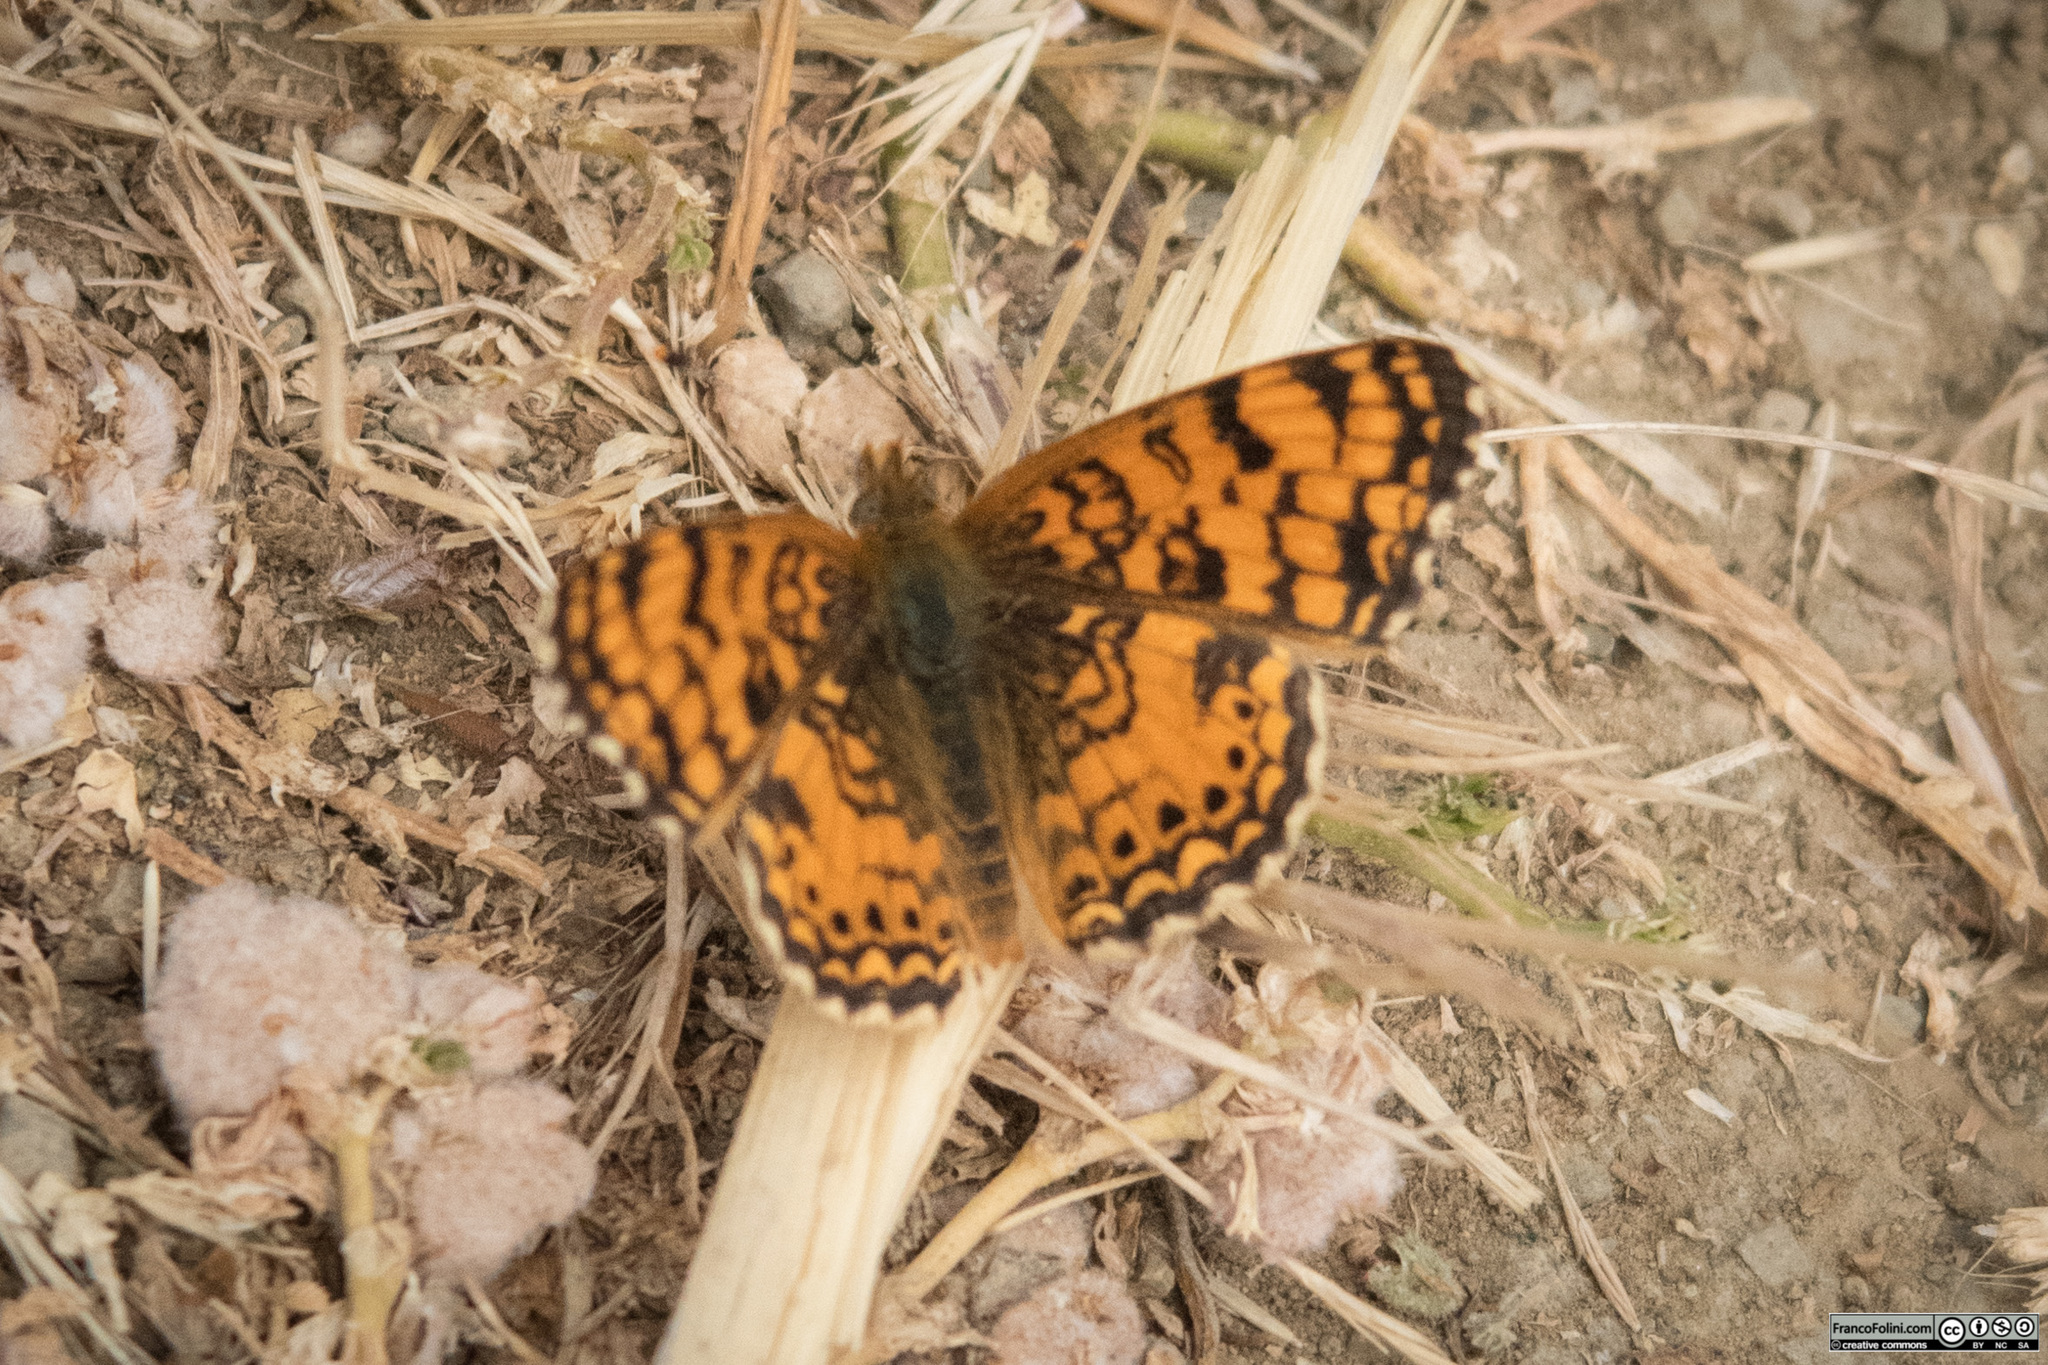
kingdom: Animalia
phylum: Arthropoda
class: Insecta
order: Lepidoptera
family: Nymphalidae
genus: Eresia
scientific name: Eresia aveyrona
